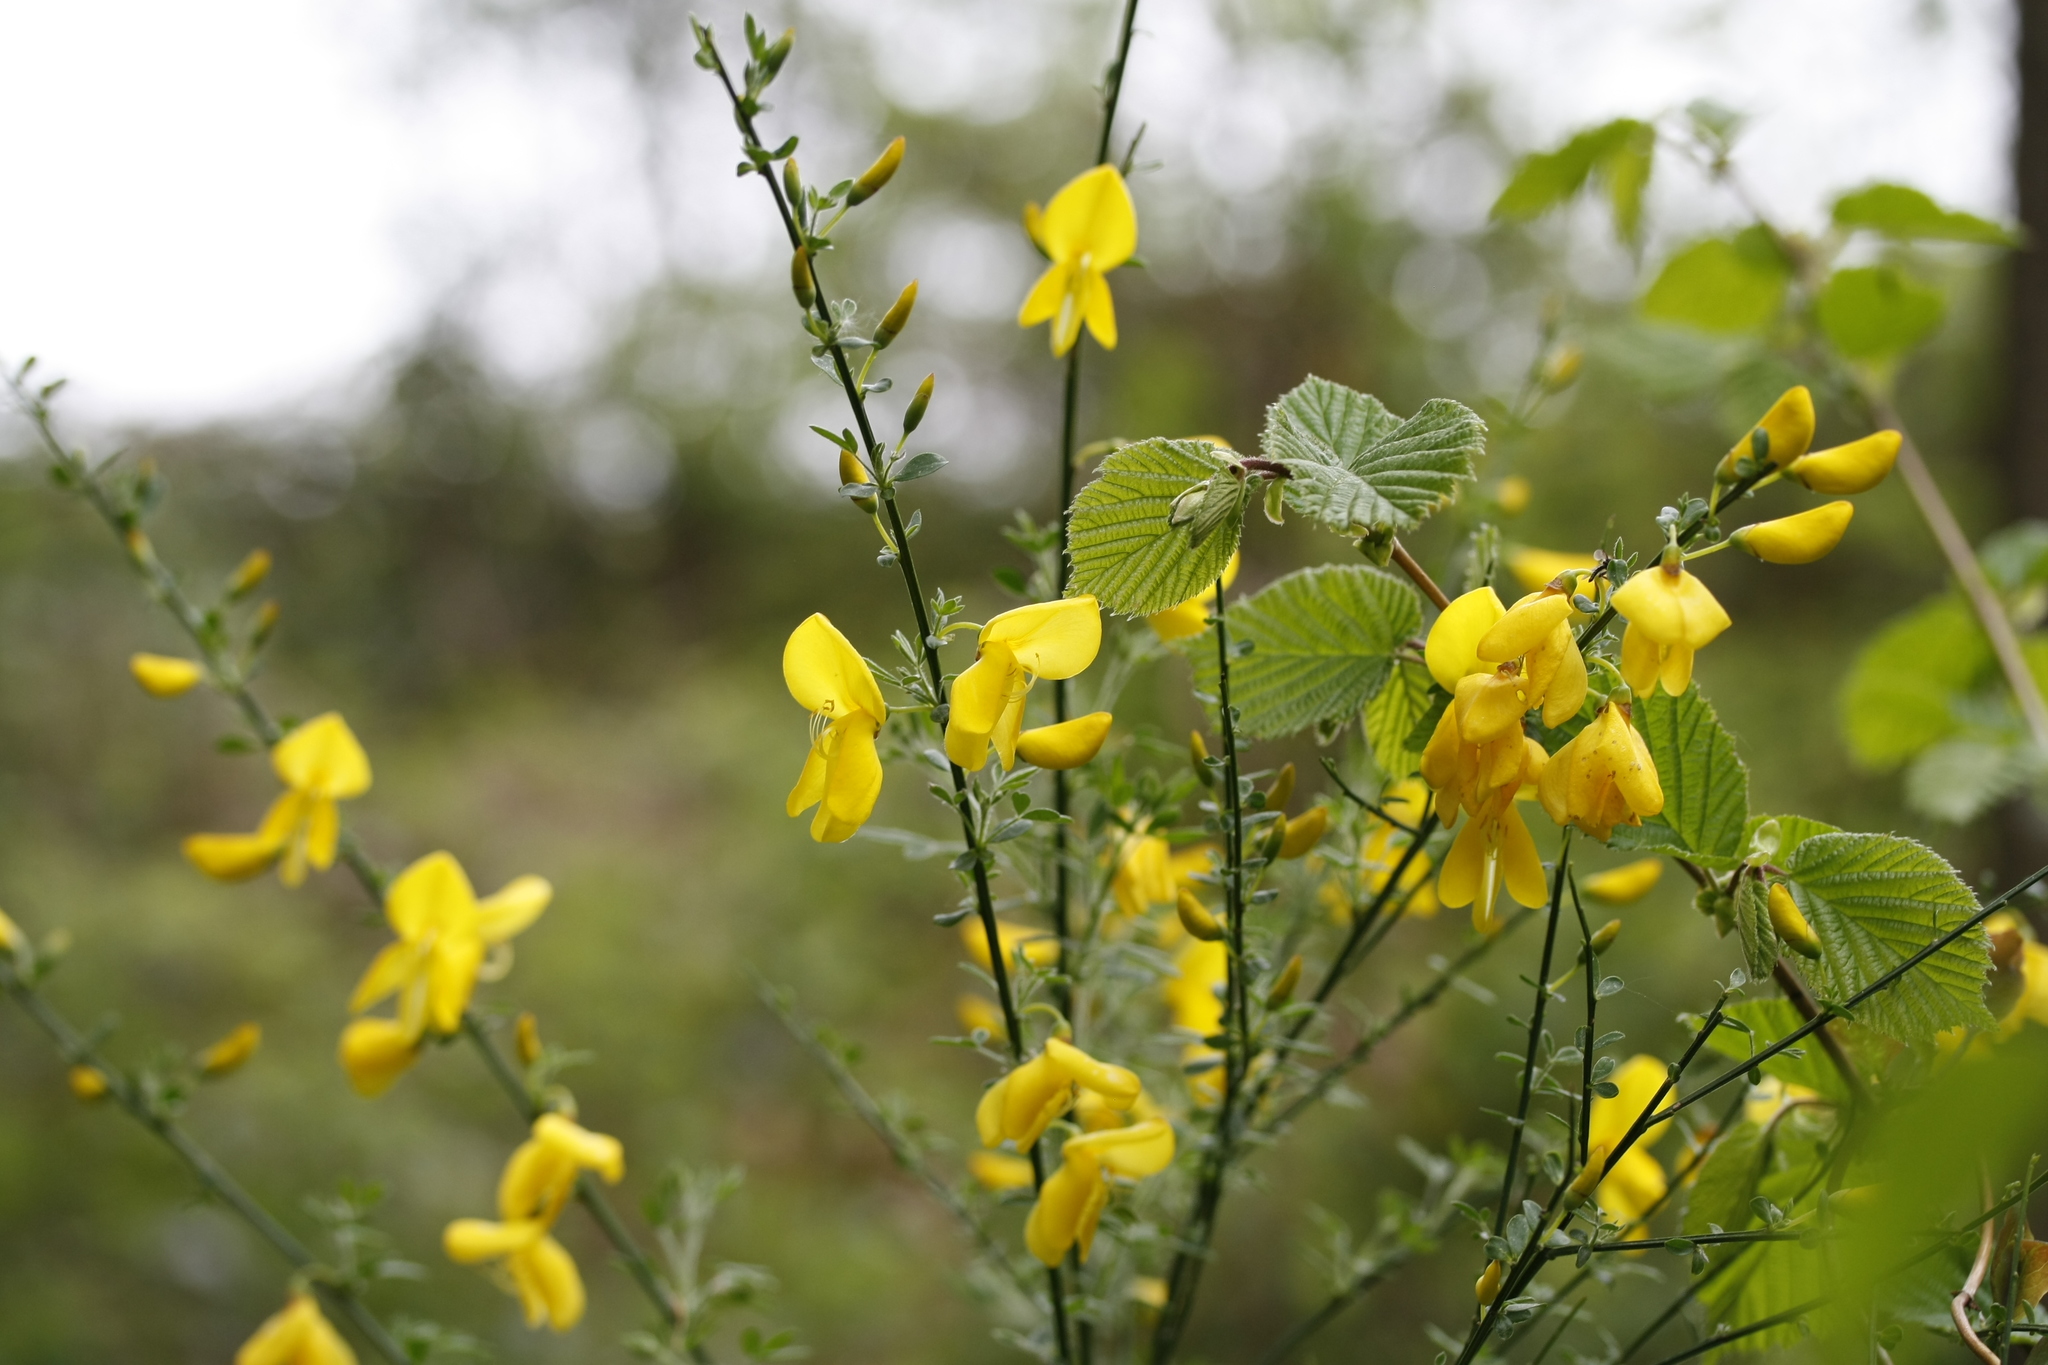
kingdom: Plantae
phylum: Tracheophyta
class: Magnoliopsida
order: Fabales
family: Fabaceae
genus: Cytisus
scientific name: Cytisus scoparius
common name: Scotch broom
